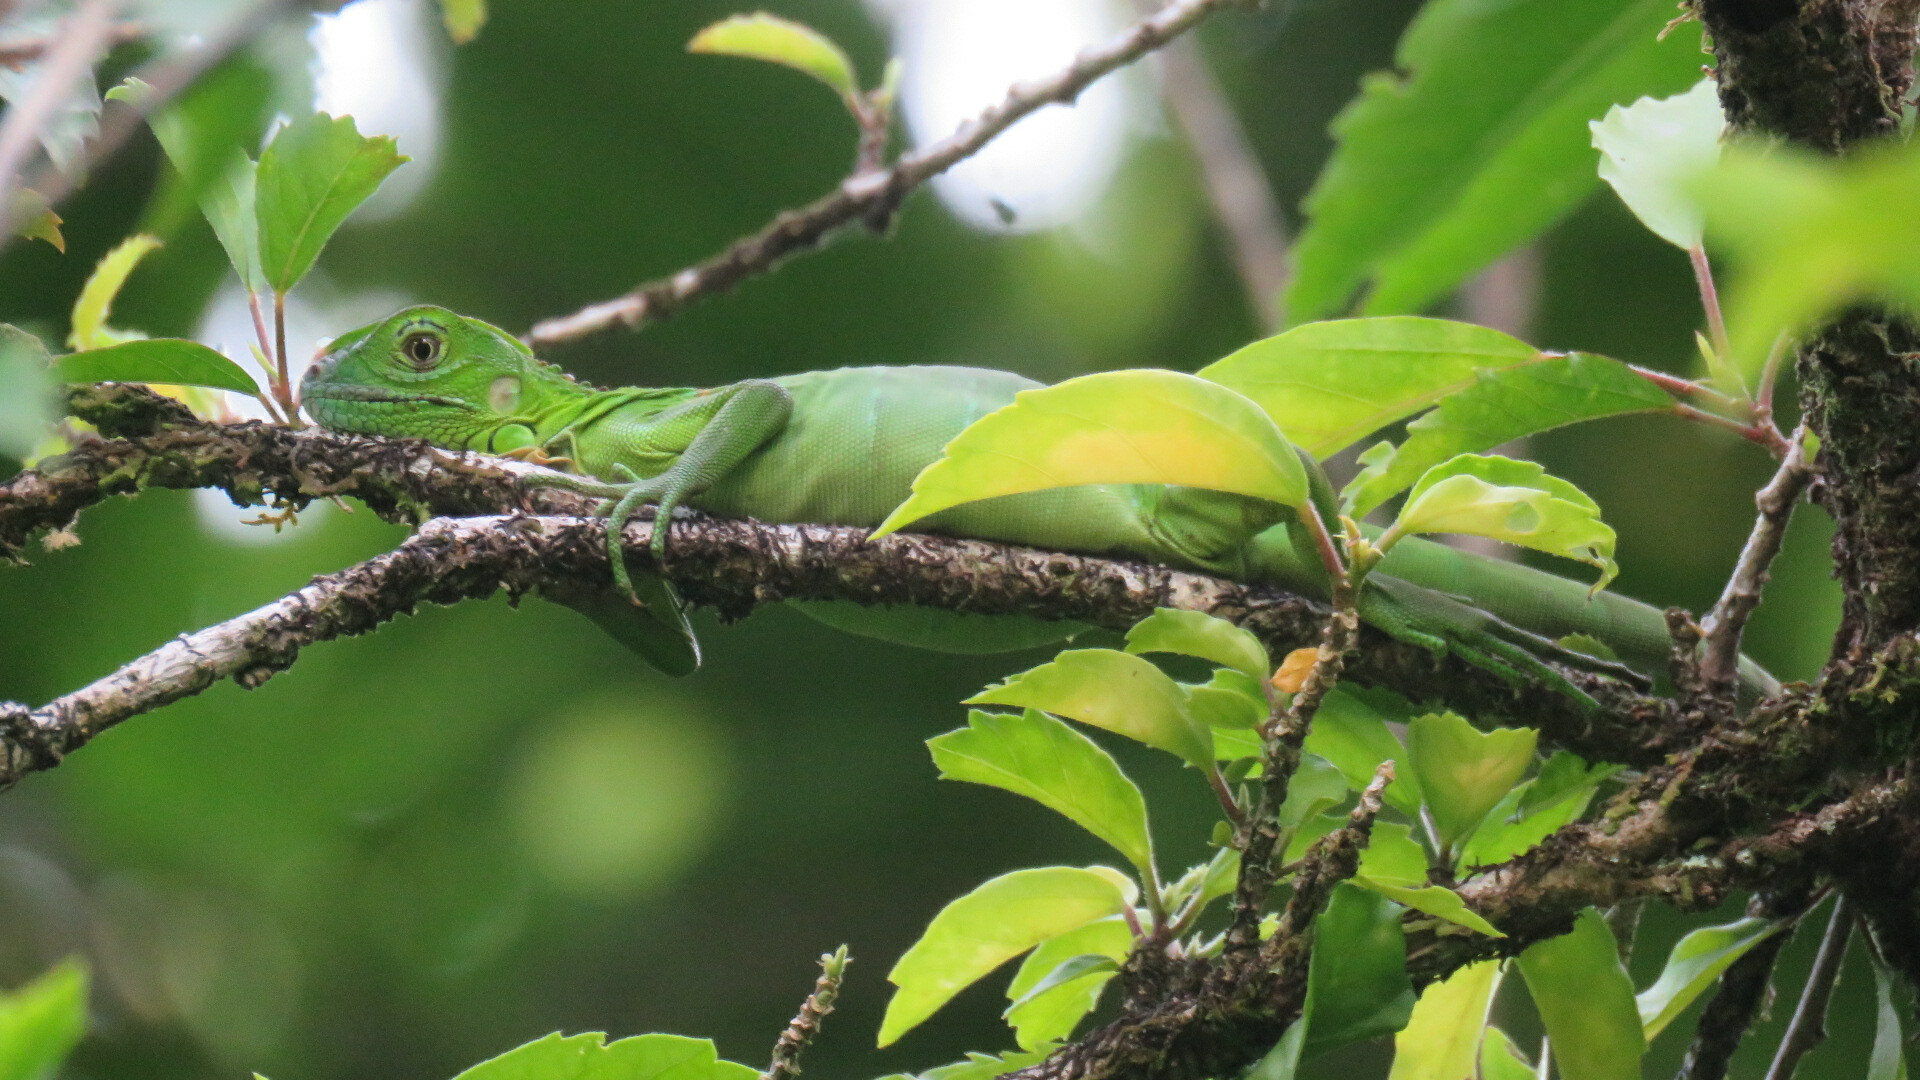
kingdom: Animalia
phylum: Chordata
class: Squamata
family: Iguanidae
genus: Iguana
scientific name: Iguana iguana
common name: Green iguana
